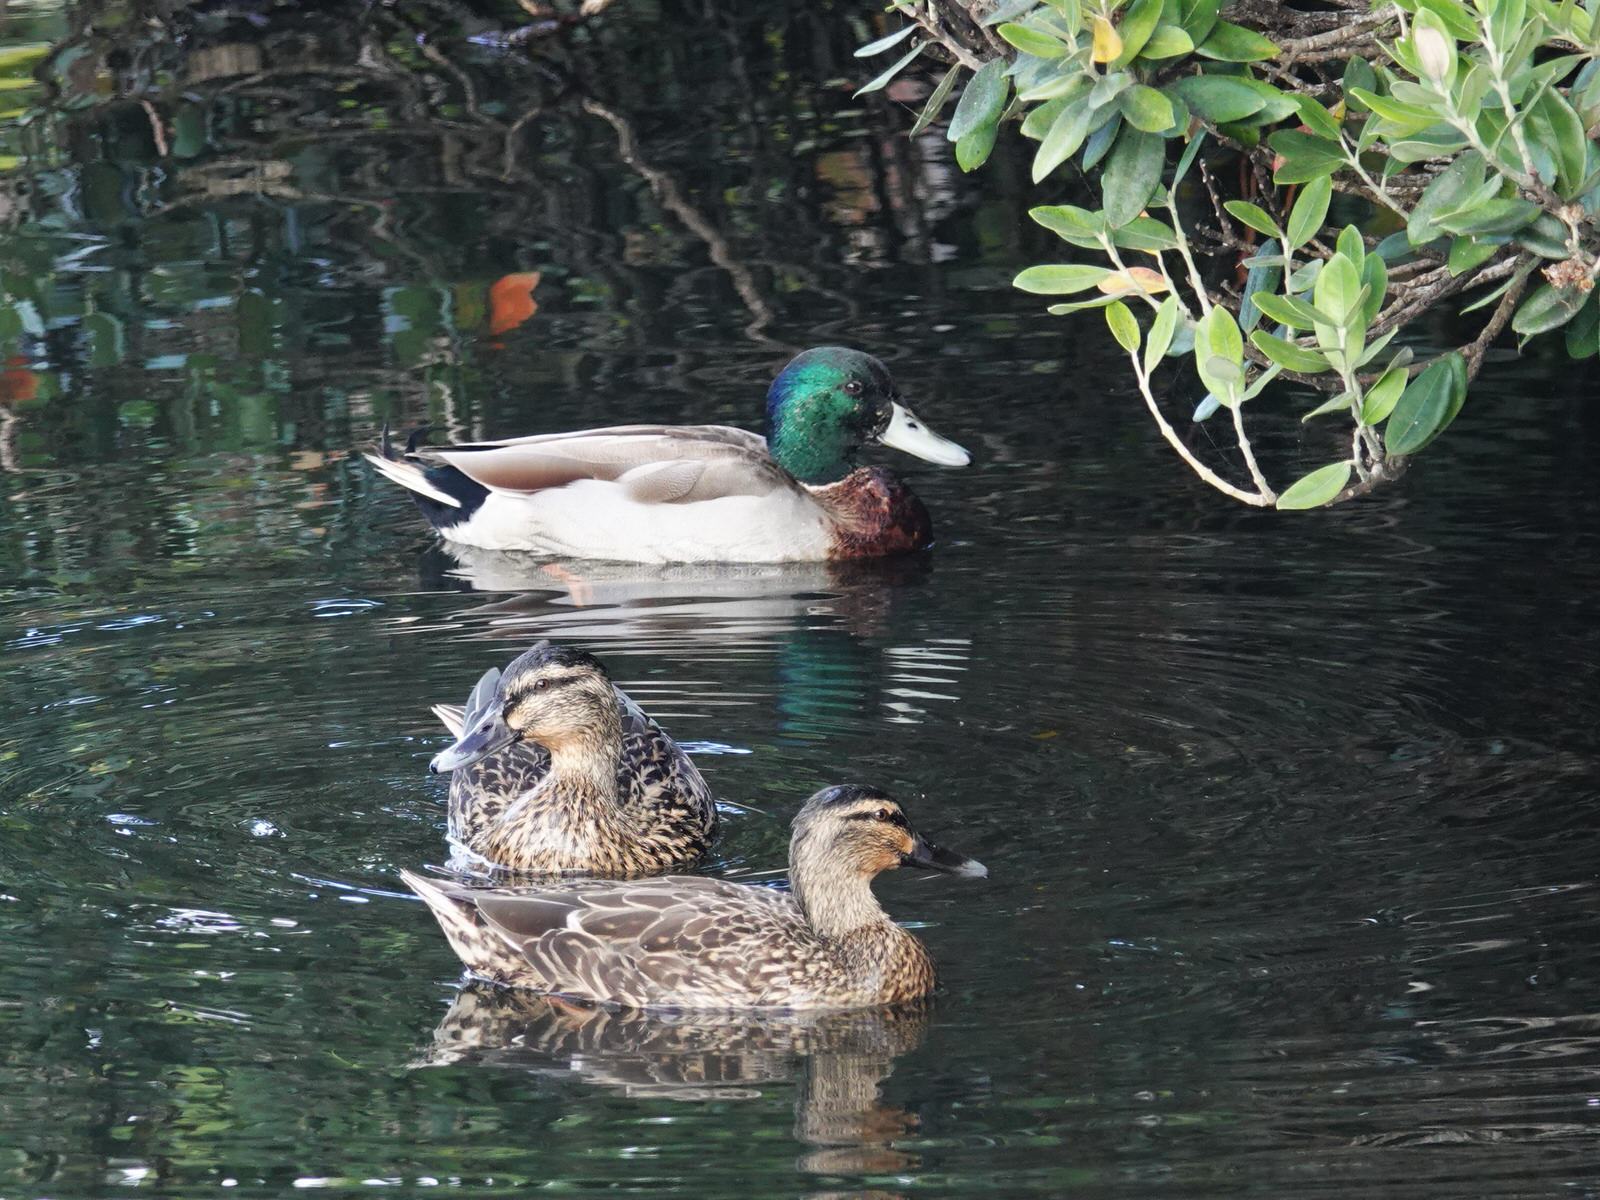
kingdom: Animalia
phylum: Chordata
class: Aves
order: Anseriformes
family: Anatidae
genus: Anas
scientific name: Anas
